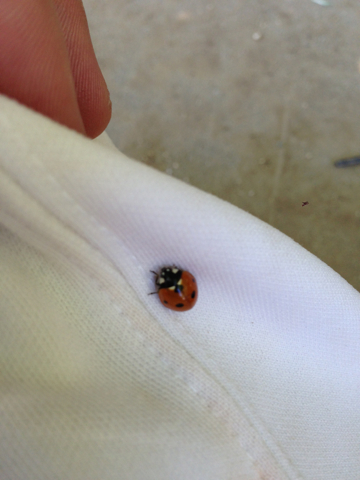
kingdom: Animalia
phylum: Arthropoda
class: Insecta
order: Coleoptera
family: Coccinellidae
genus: Coccinella
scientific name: Coccinella septempunctata
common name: Sevenspotted lady beetle
